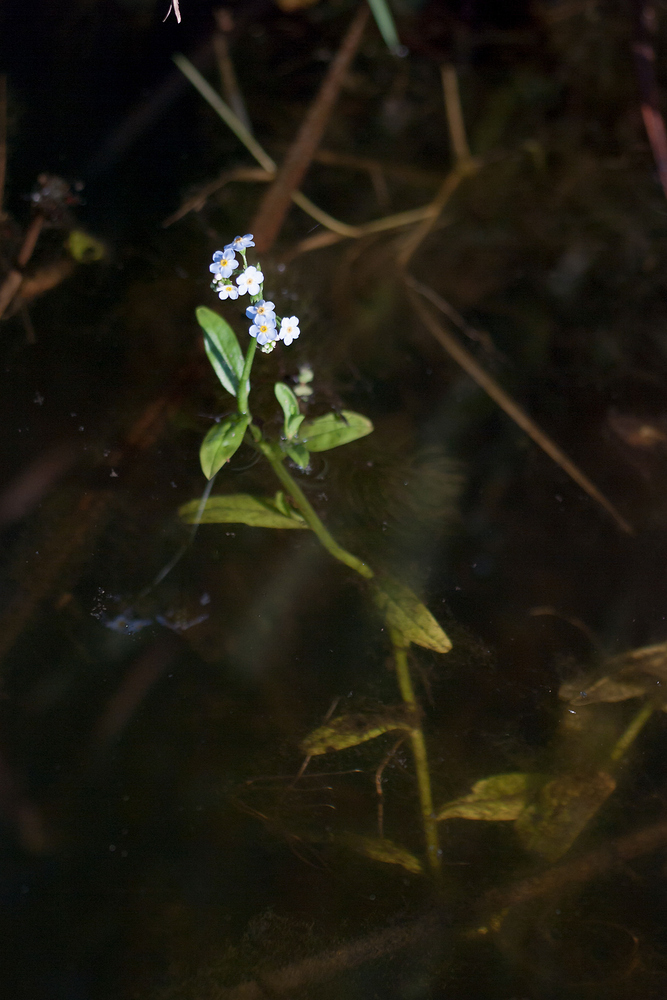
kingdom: Plantae
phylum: Tracheophyta
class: Magnoliopsida
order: Boraginales
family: Boraginaceae
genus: Myosotis
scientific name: Myosotis scorpioides
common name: Water forget-me-not
